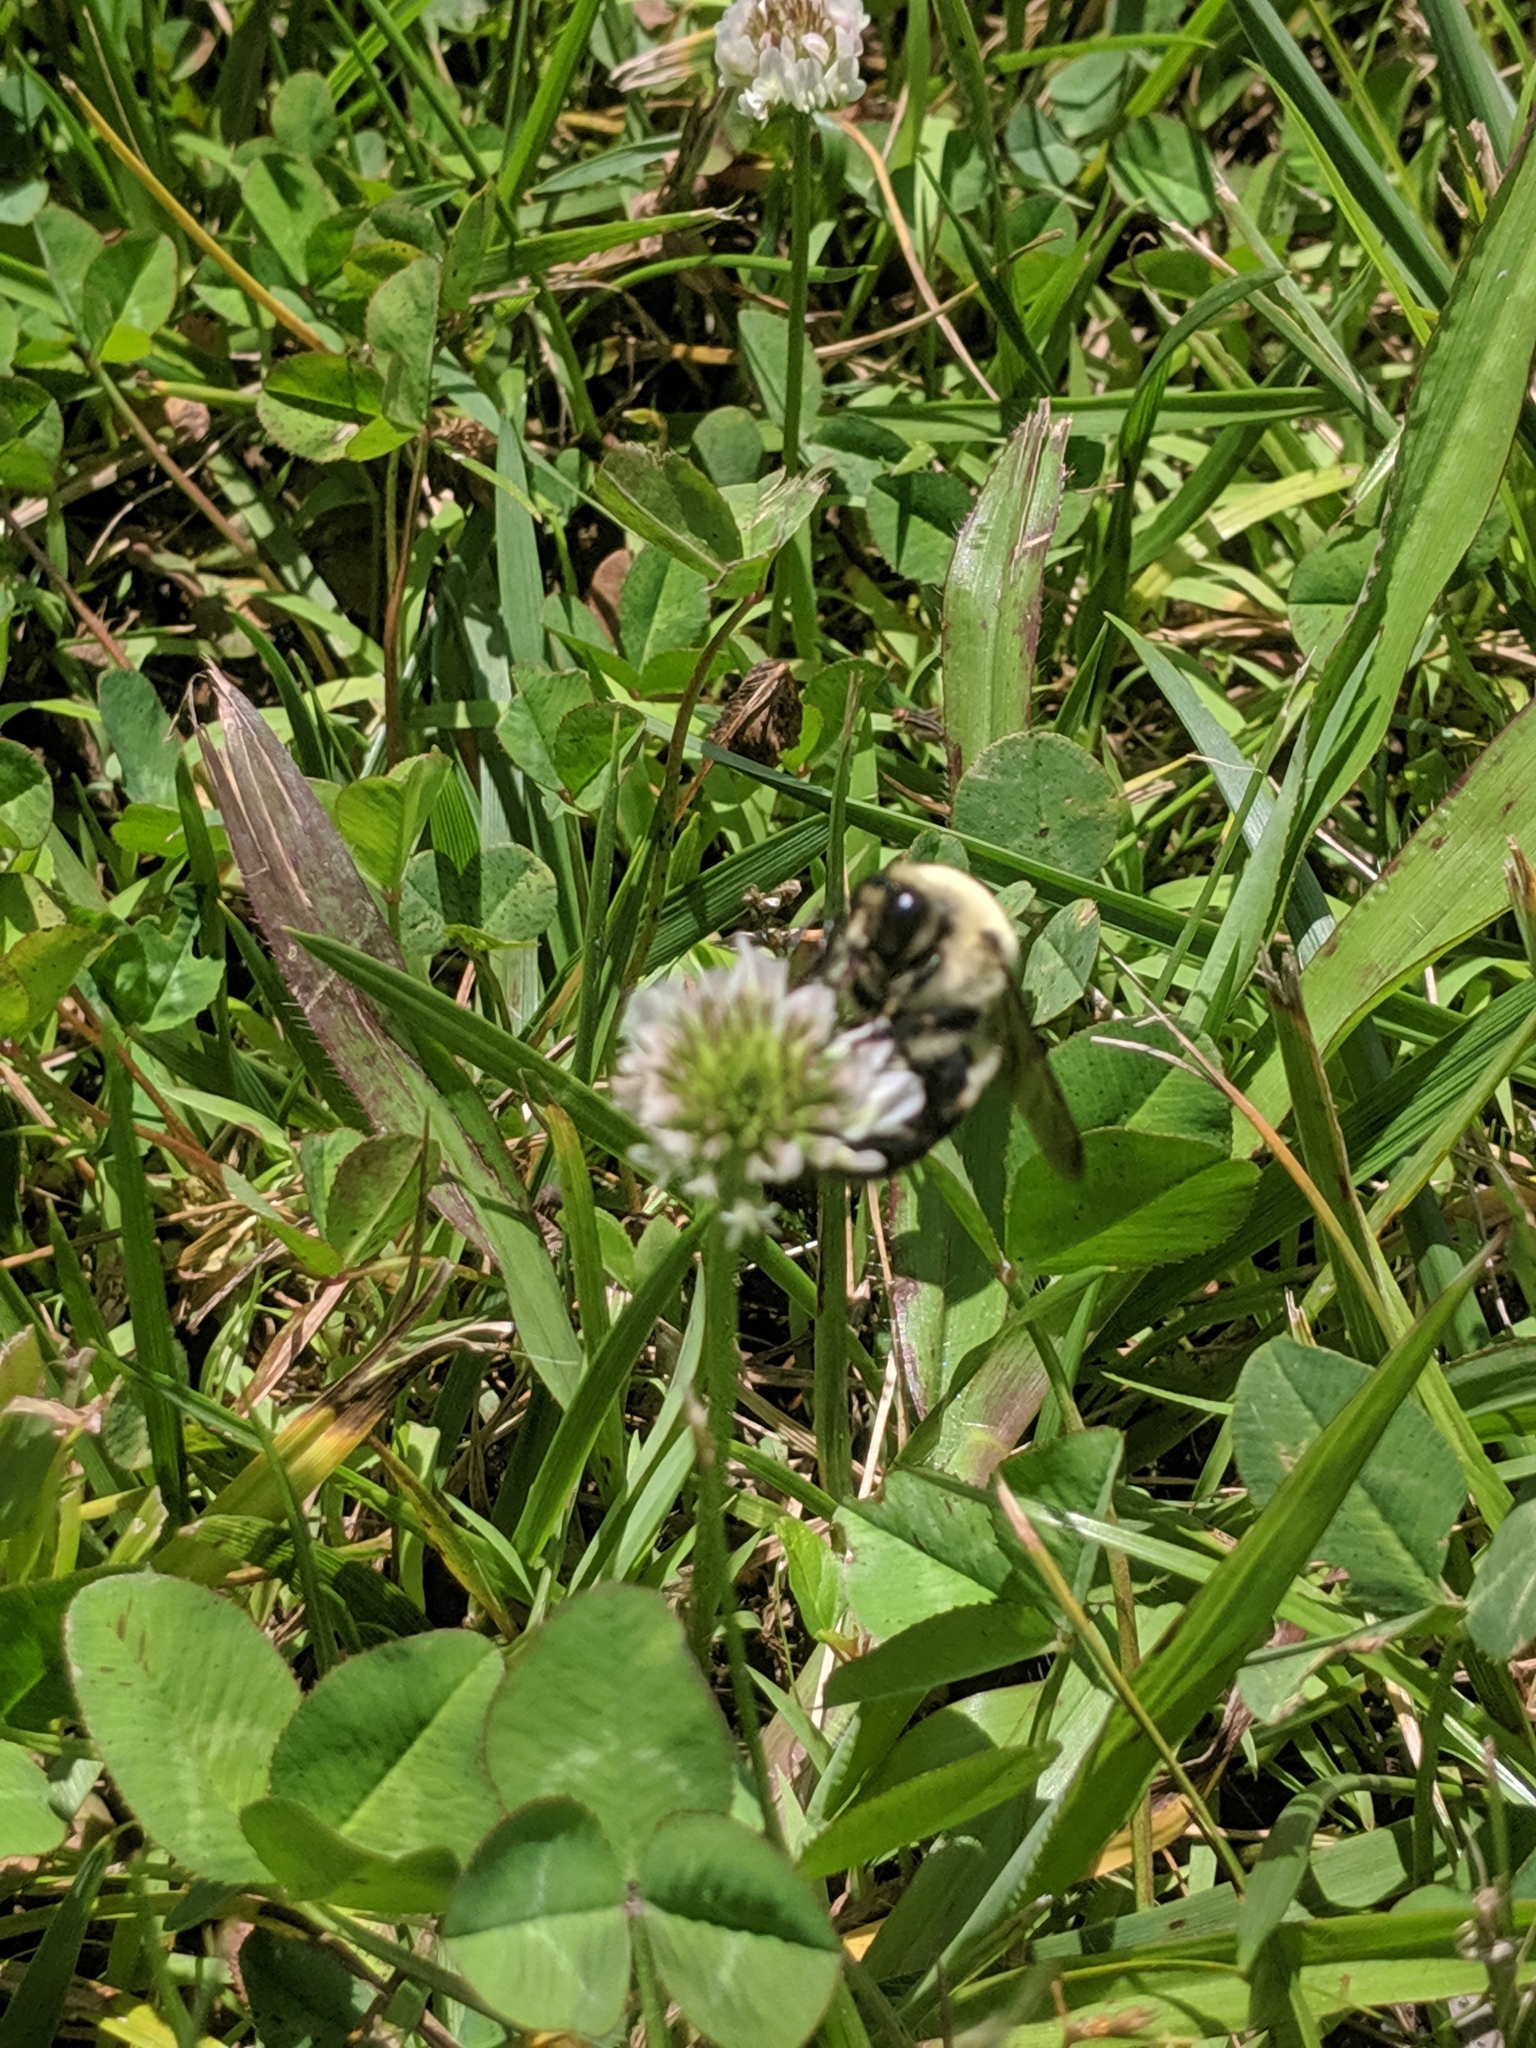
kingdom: Animalia
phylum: Arthropoda
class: Insecta
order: Hymenoptera
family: Apidae
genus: Bombus
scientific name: Bombus griseocollis
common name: Brown-belted bumble bee
